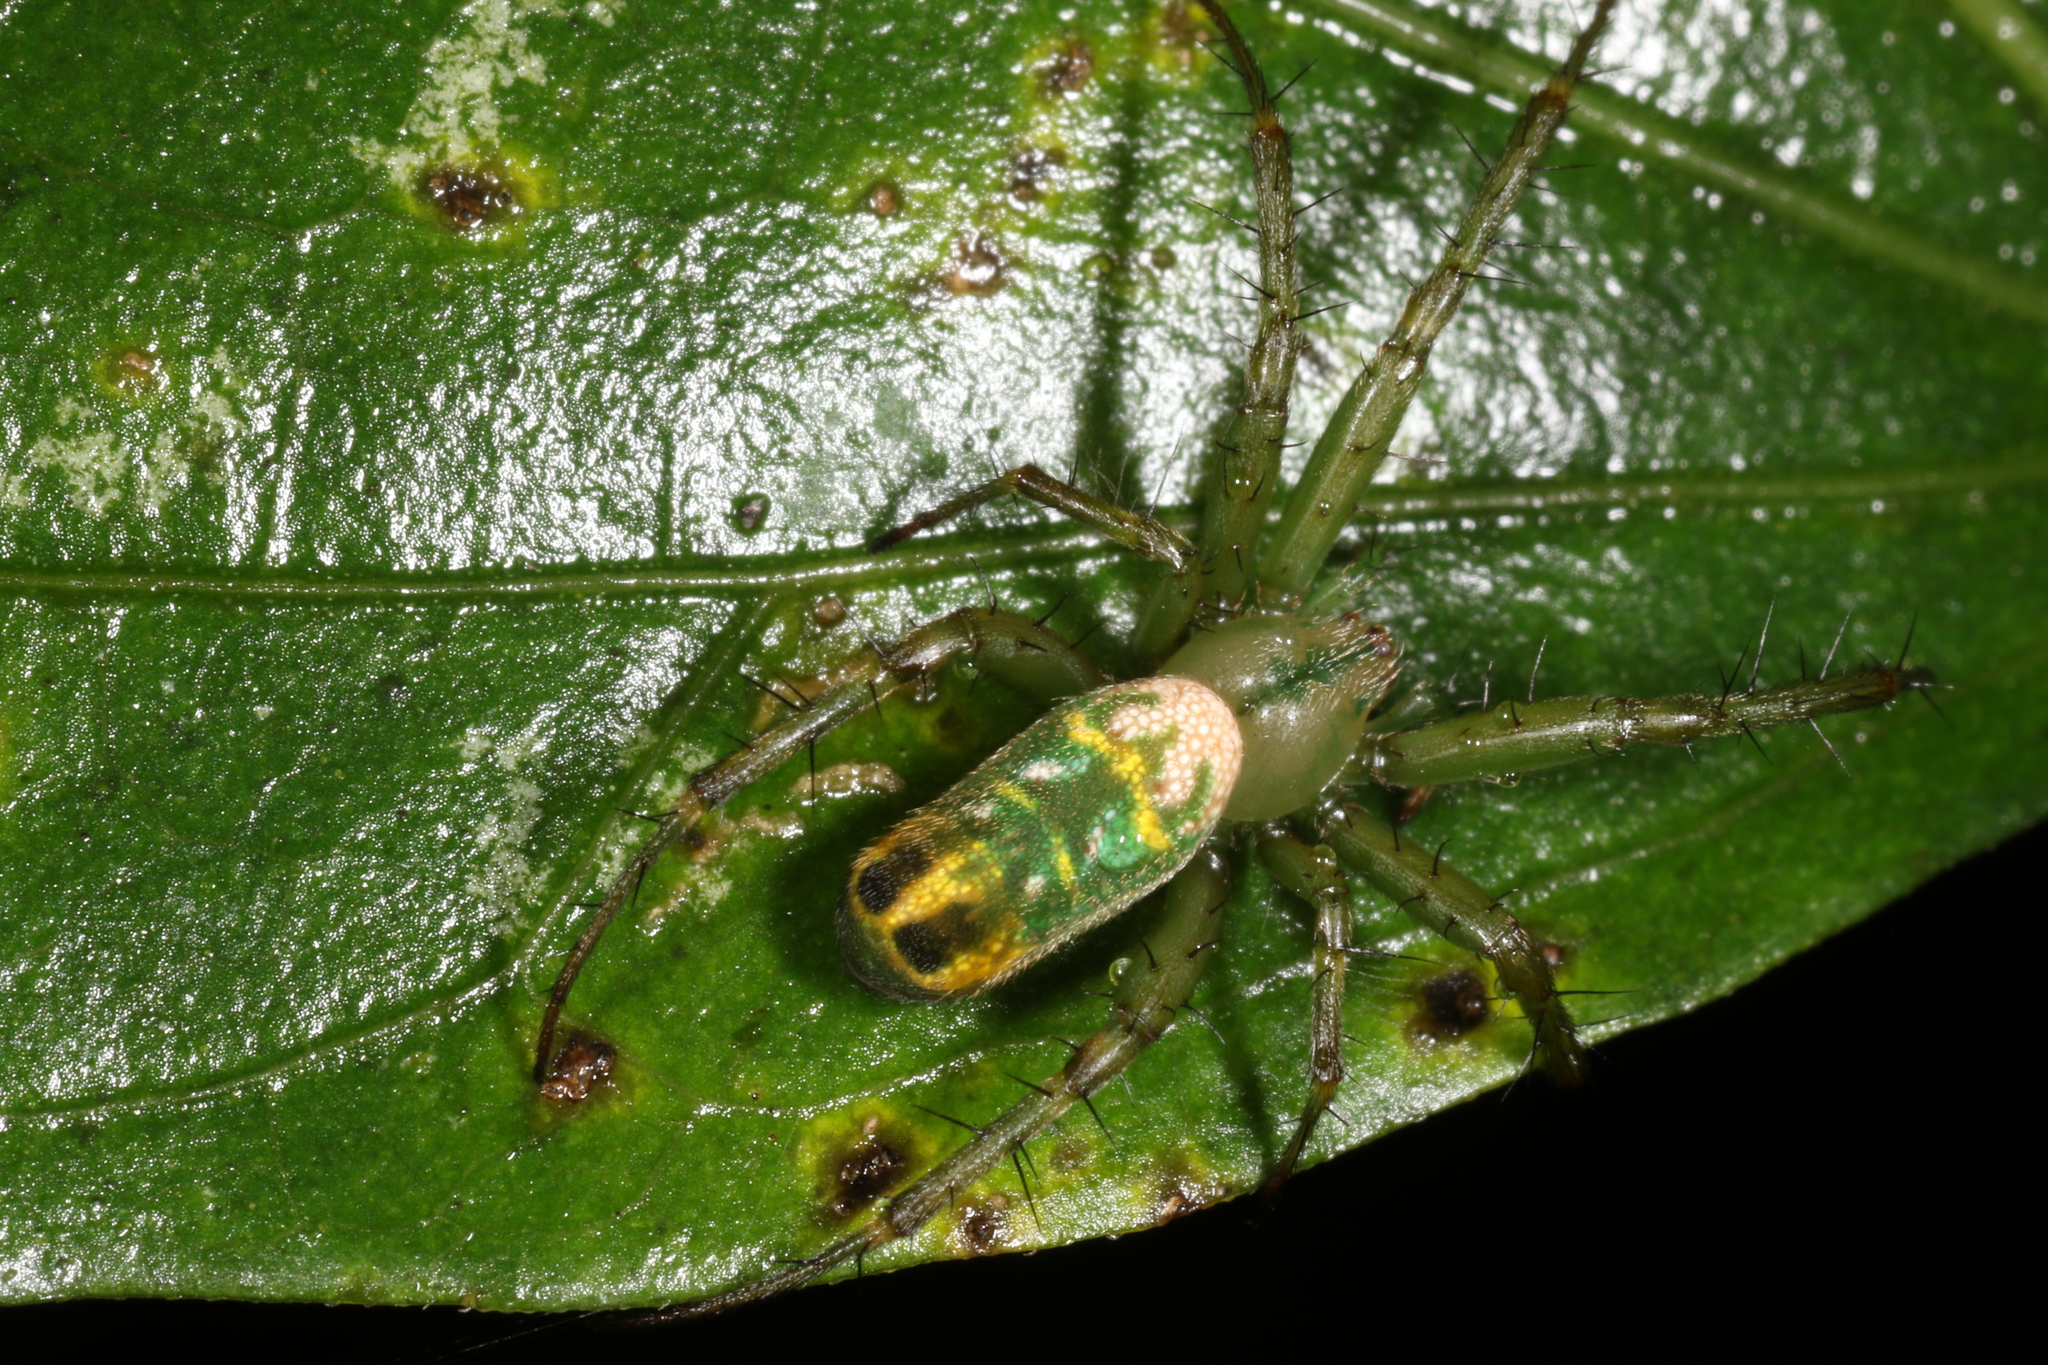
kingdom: Animalia
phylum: Arthropoda
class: Arachnida
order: Araneae
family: Araneidae
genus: Mangora
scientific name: Mangora strenua
